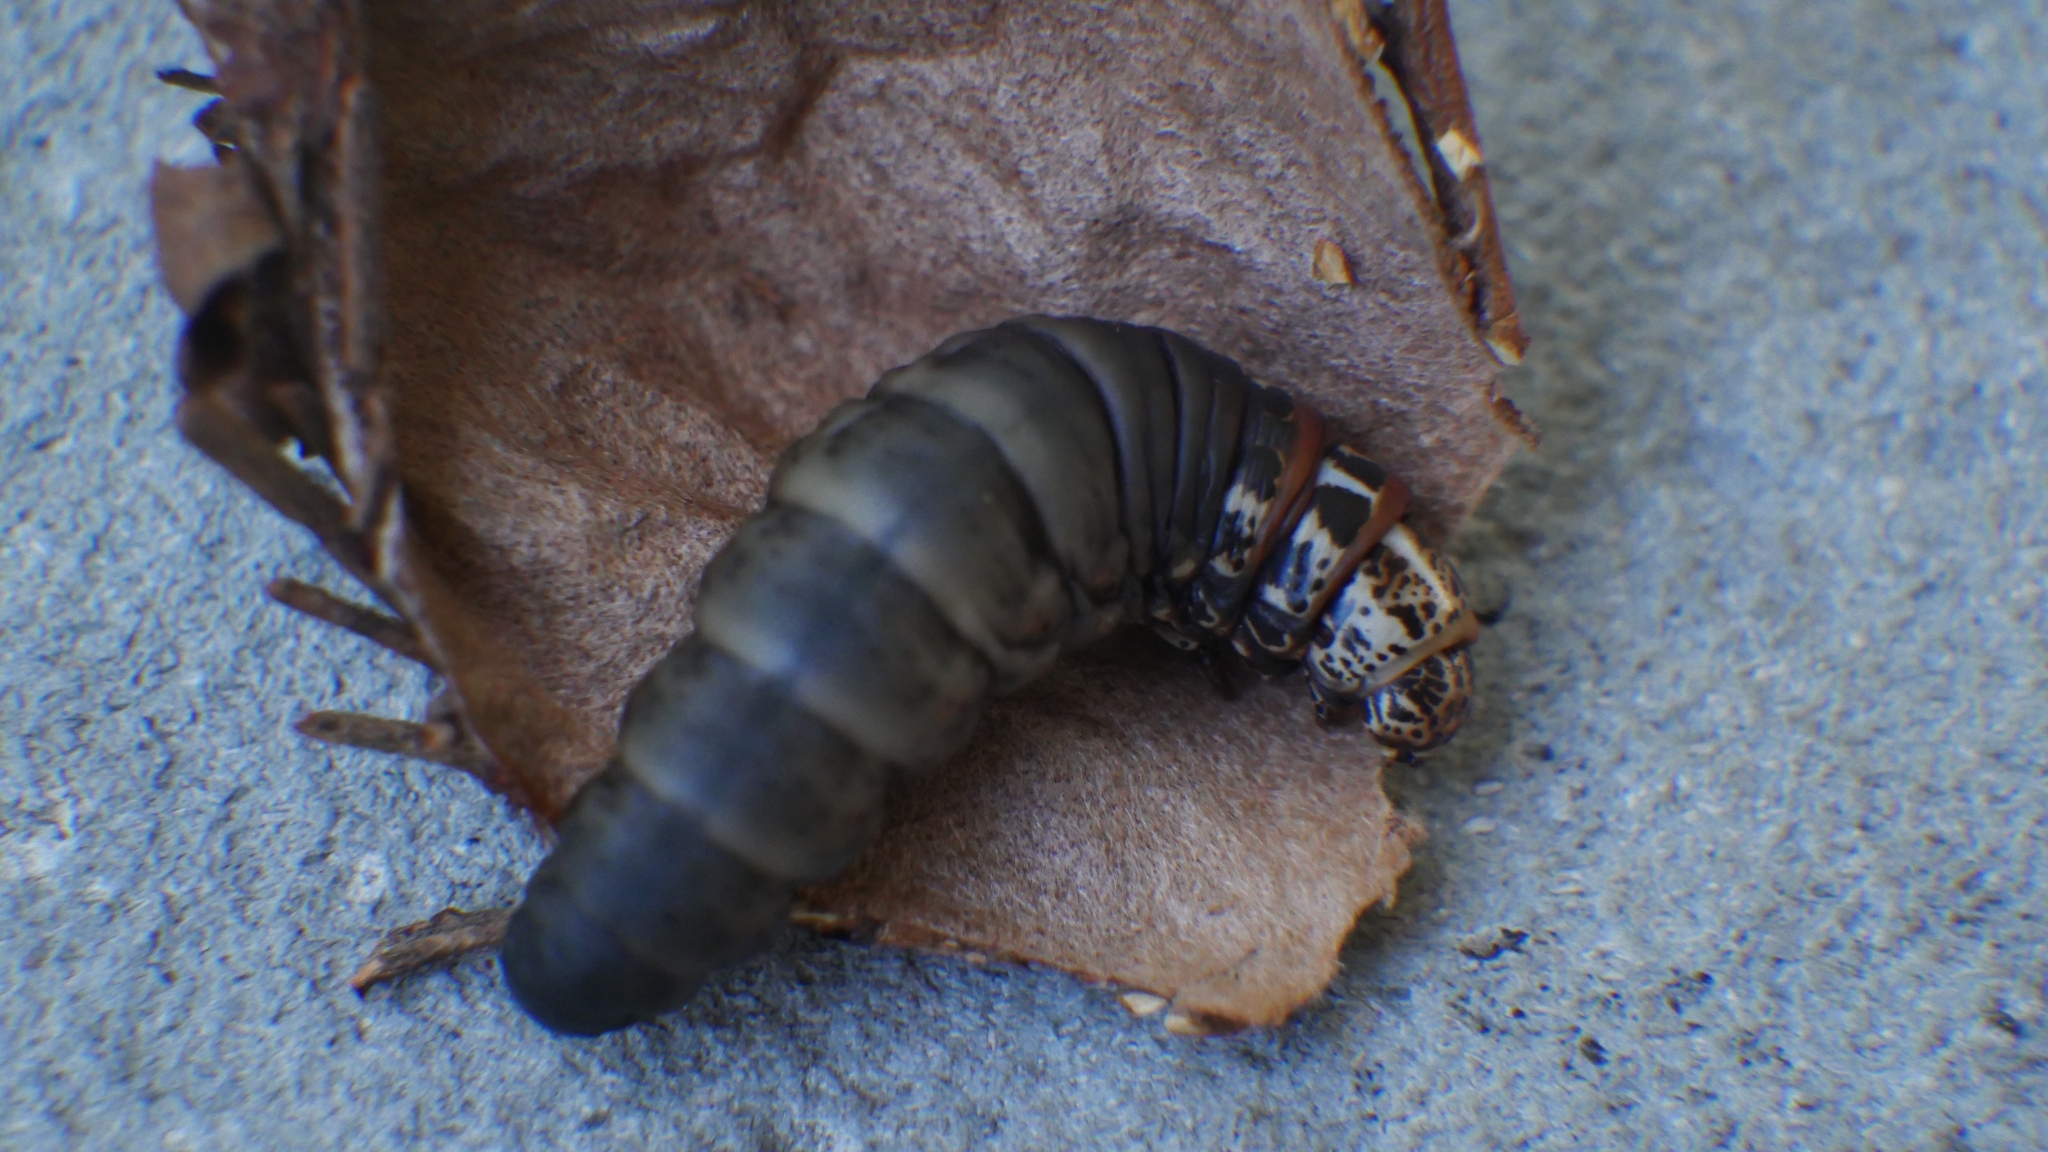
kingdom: Animalia
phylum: Arthropoda
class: Insecta
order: Lepidoptera
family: Psychidae
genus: Psyche
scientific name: Psyche casta
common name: Common sweep
